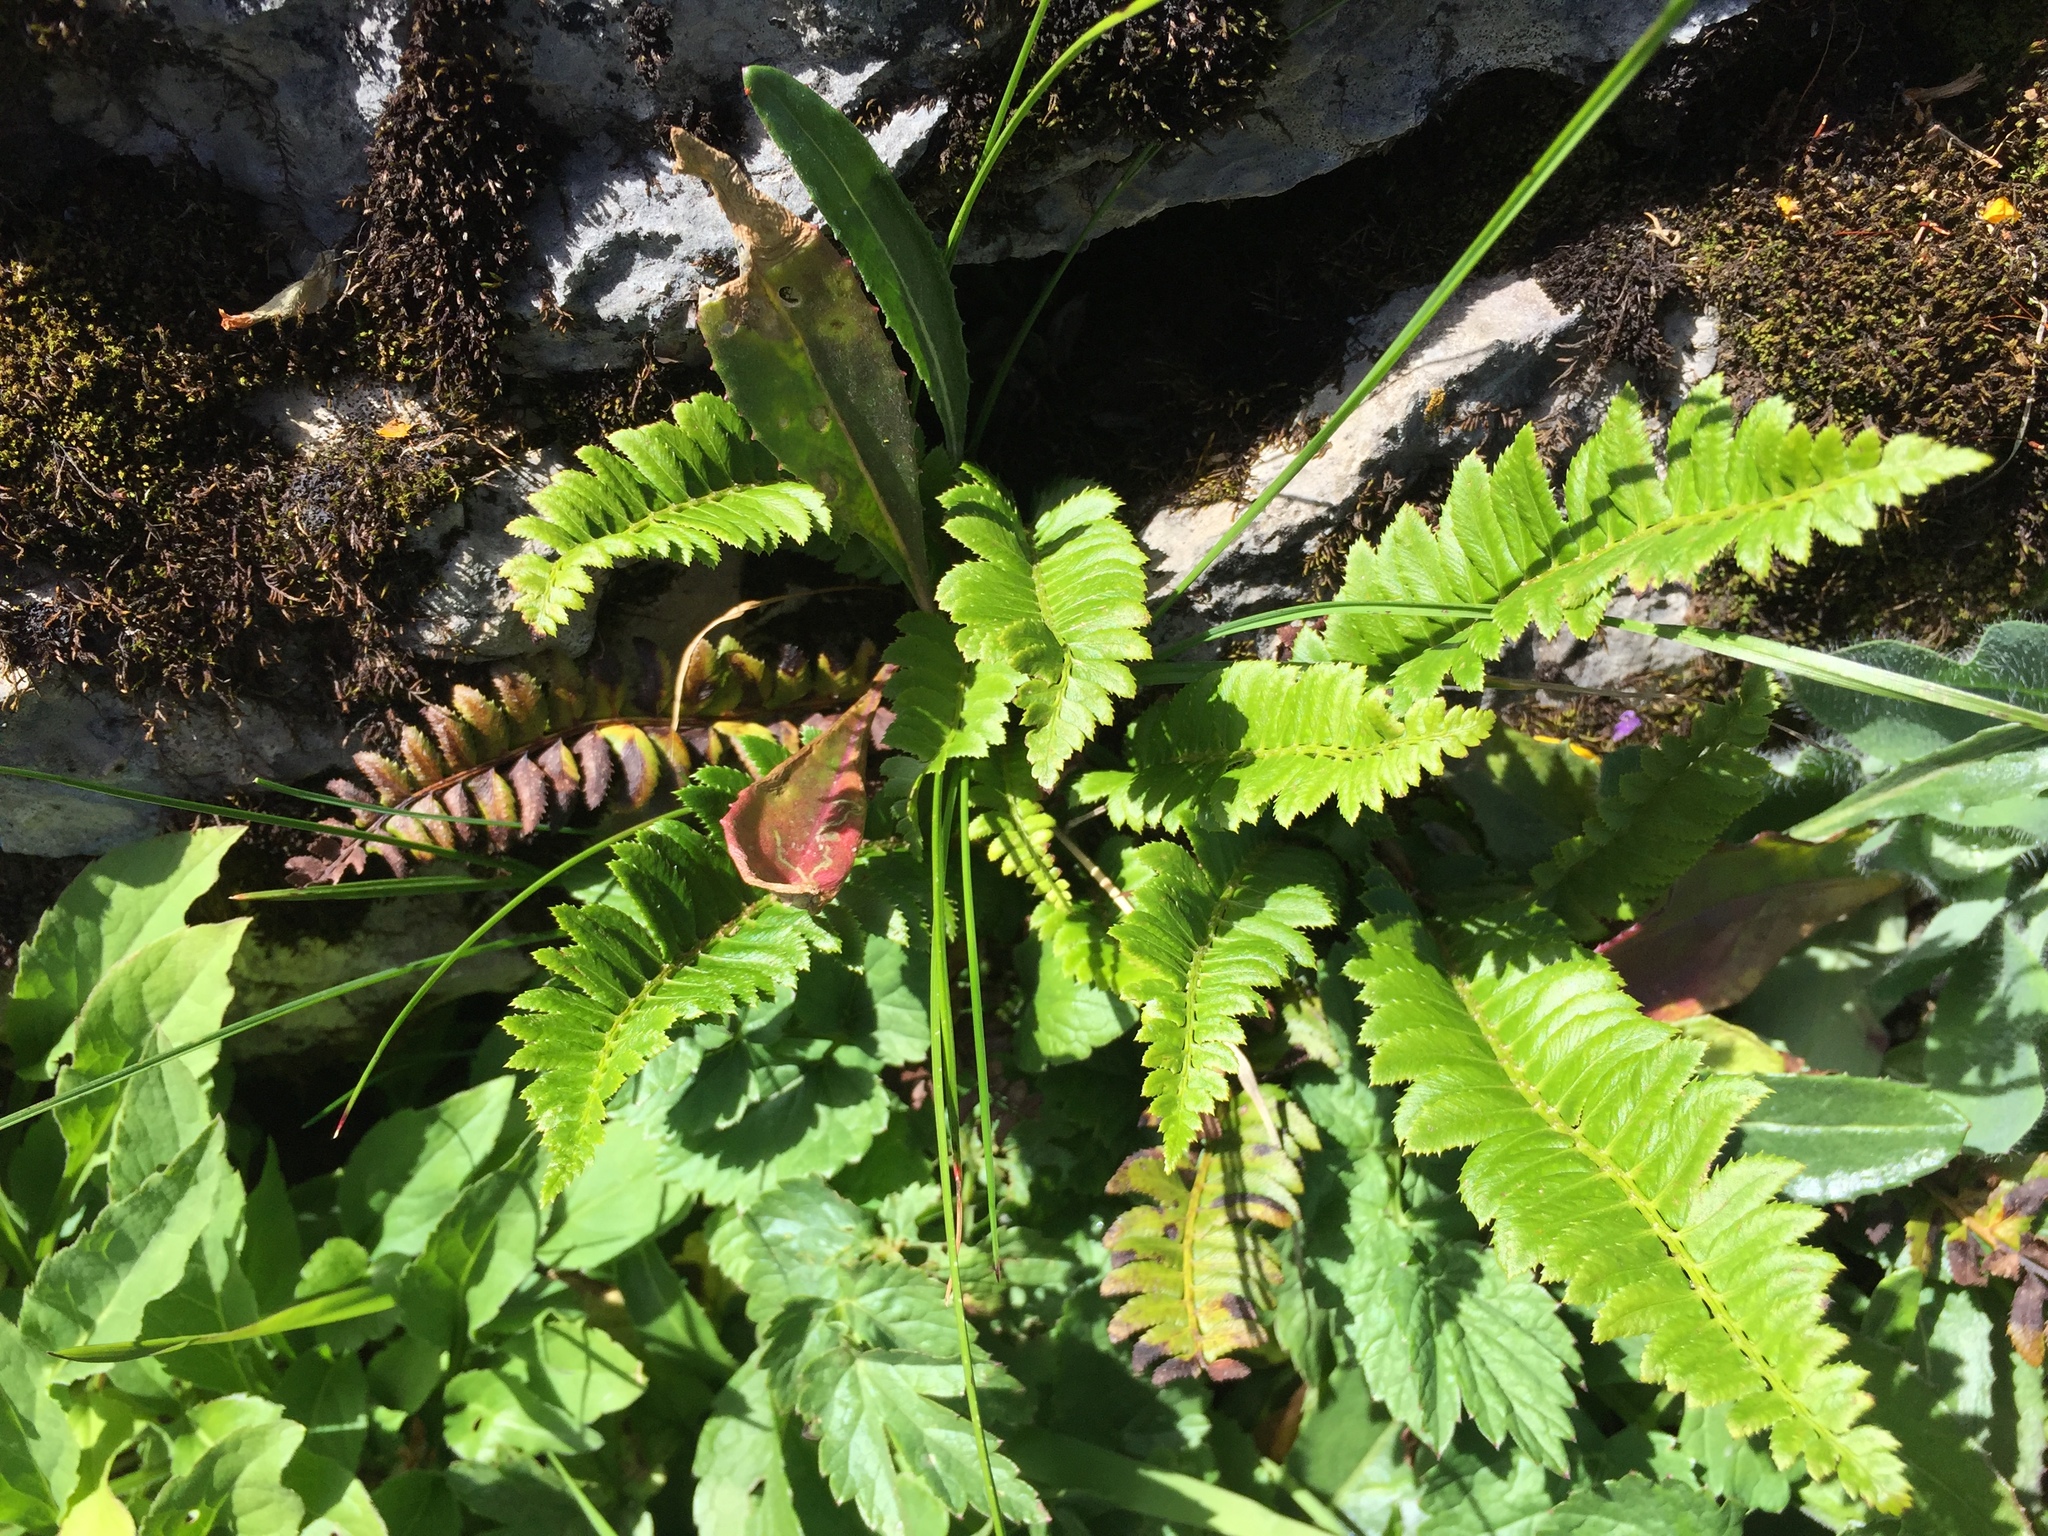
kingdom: Plantae
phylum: Tracheophyta
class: Polypodiopsida
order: Polypodiales
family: Dryopteridaceae
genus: Polystichum
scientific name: Polystichum lonchitis
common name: Holly fern
